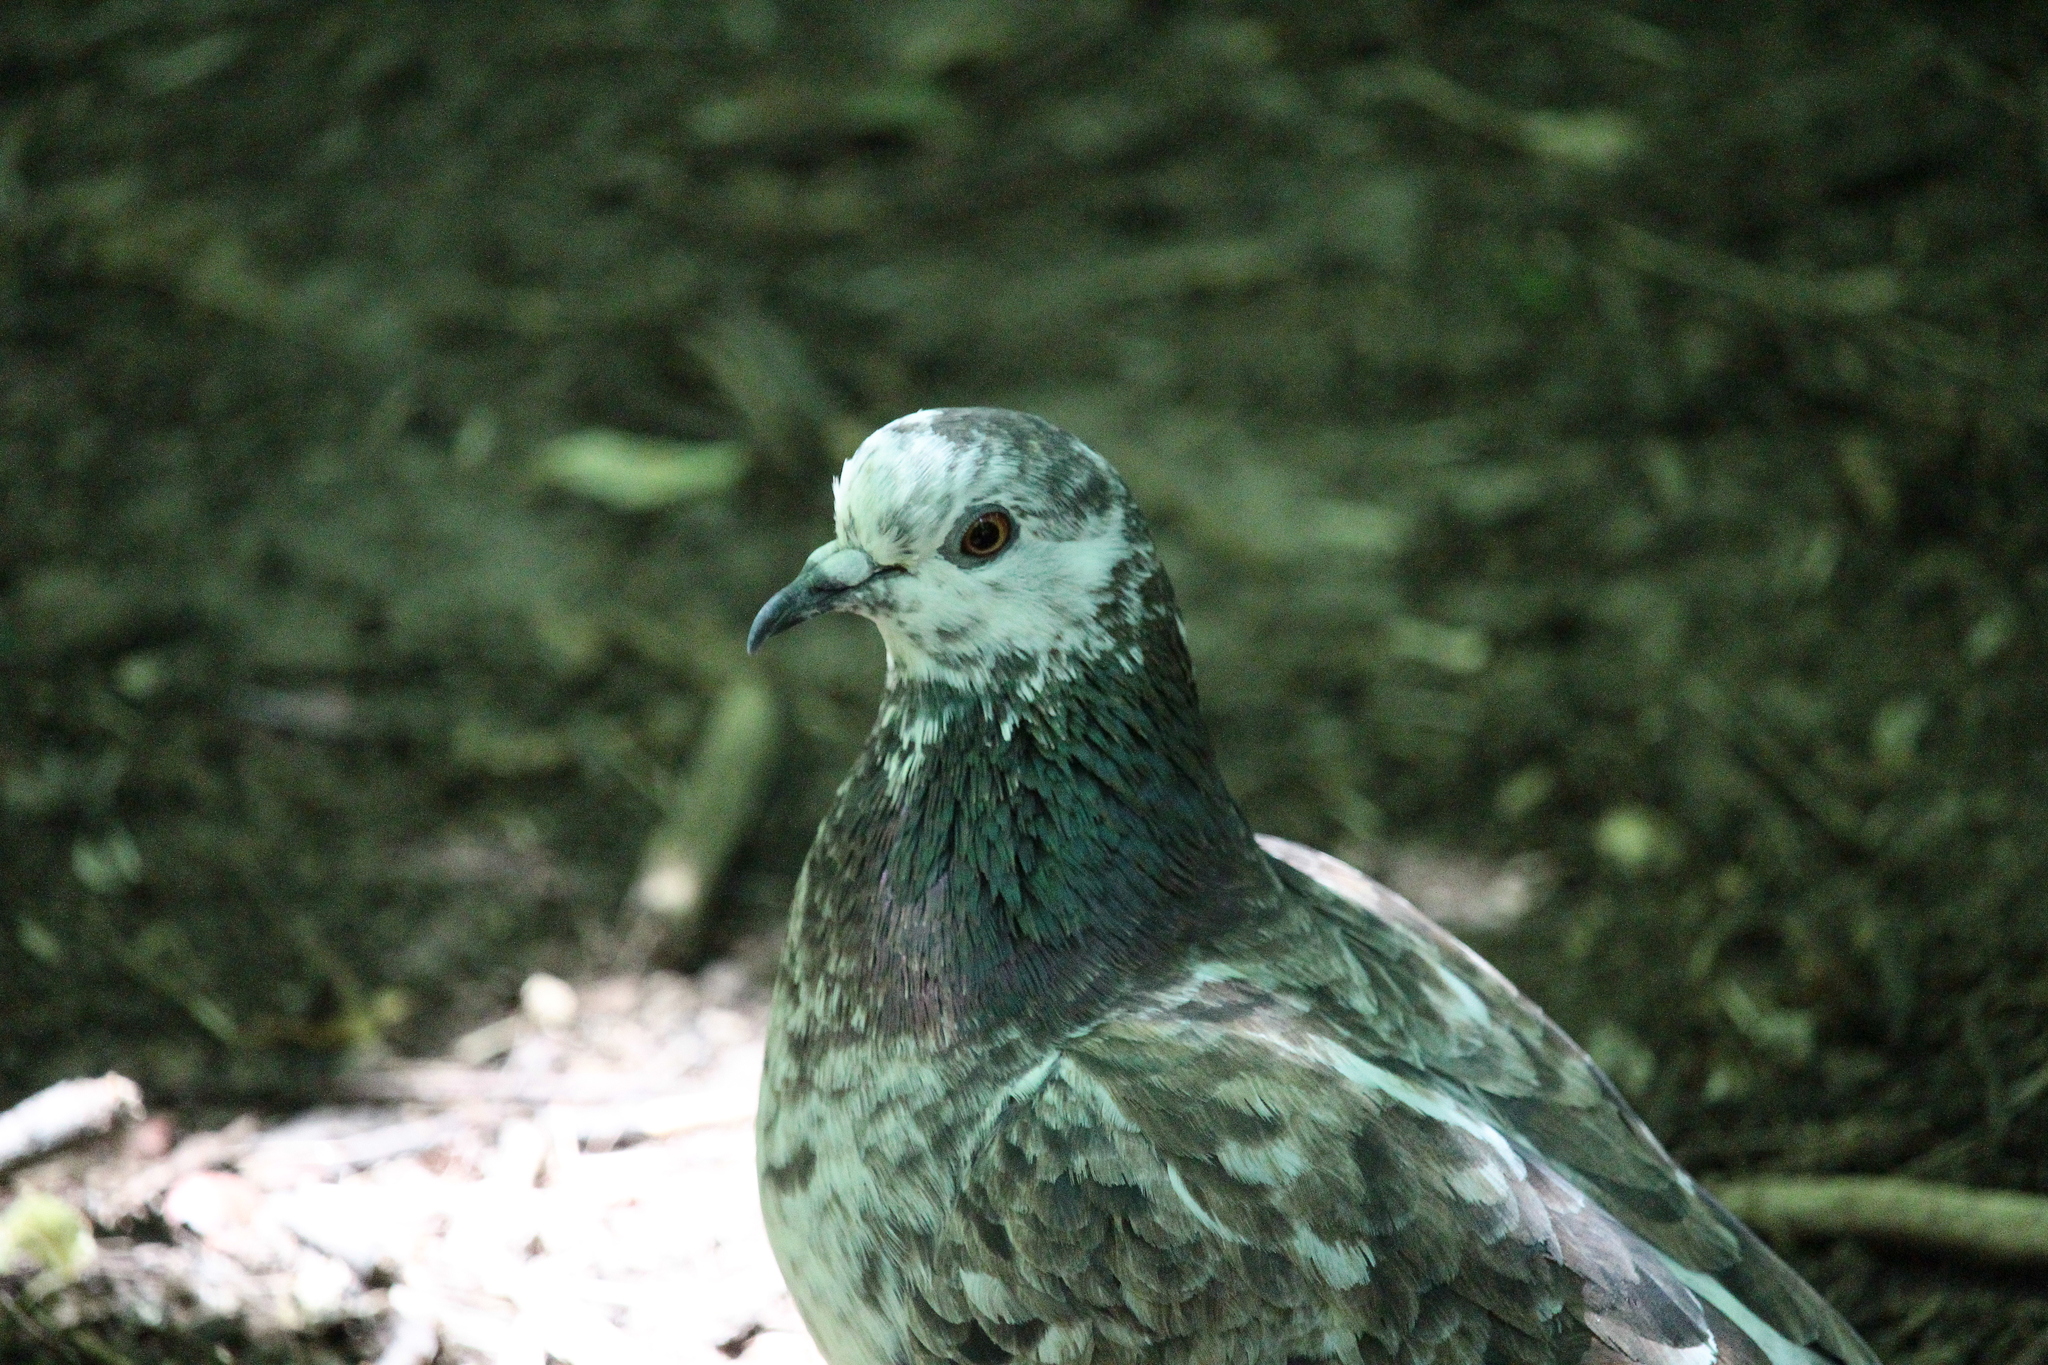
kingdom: Animalia
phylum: Chordata
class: Aves
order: Columbiformes
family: Columbidae
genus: Columba
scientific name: Columba livia
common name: Rock pigeon
